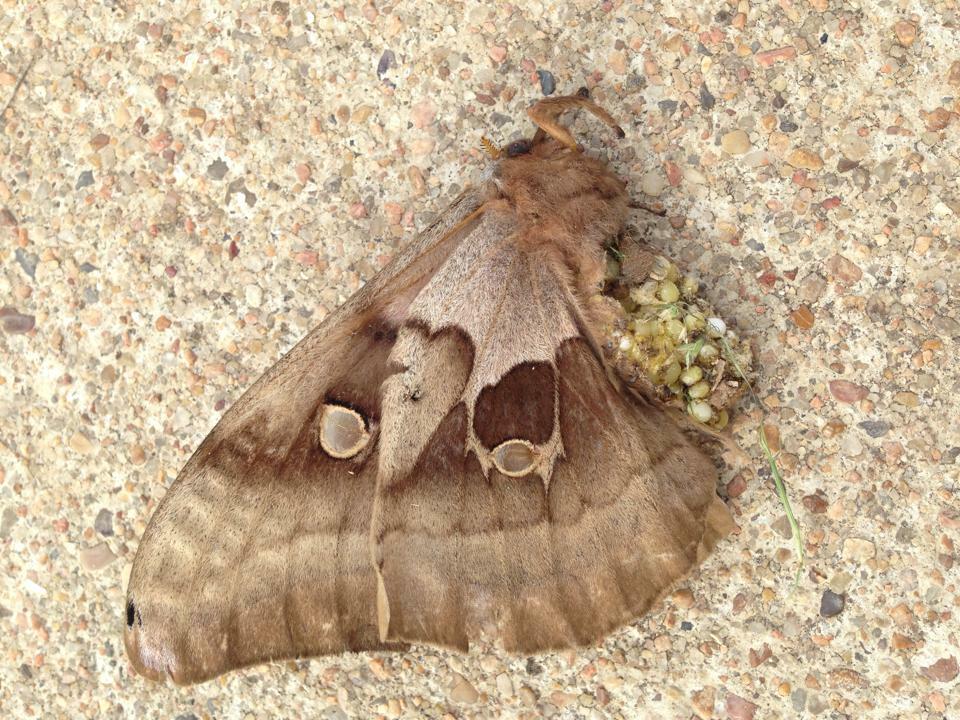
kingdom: Animalia
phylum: Arthropoda
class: Insecta
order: Lepidoptera
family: Saturniidae
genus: Antheraea
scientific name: Antheraea polyphemus
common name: Polyphemus moth
